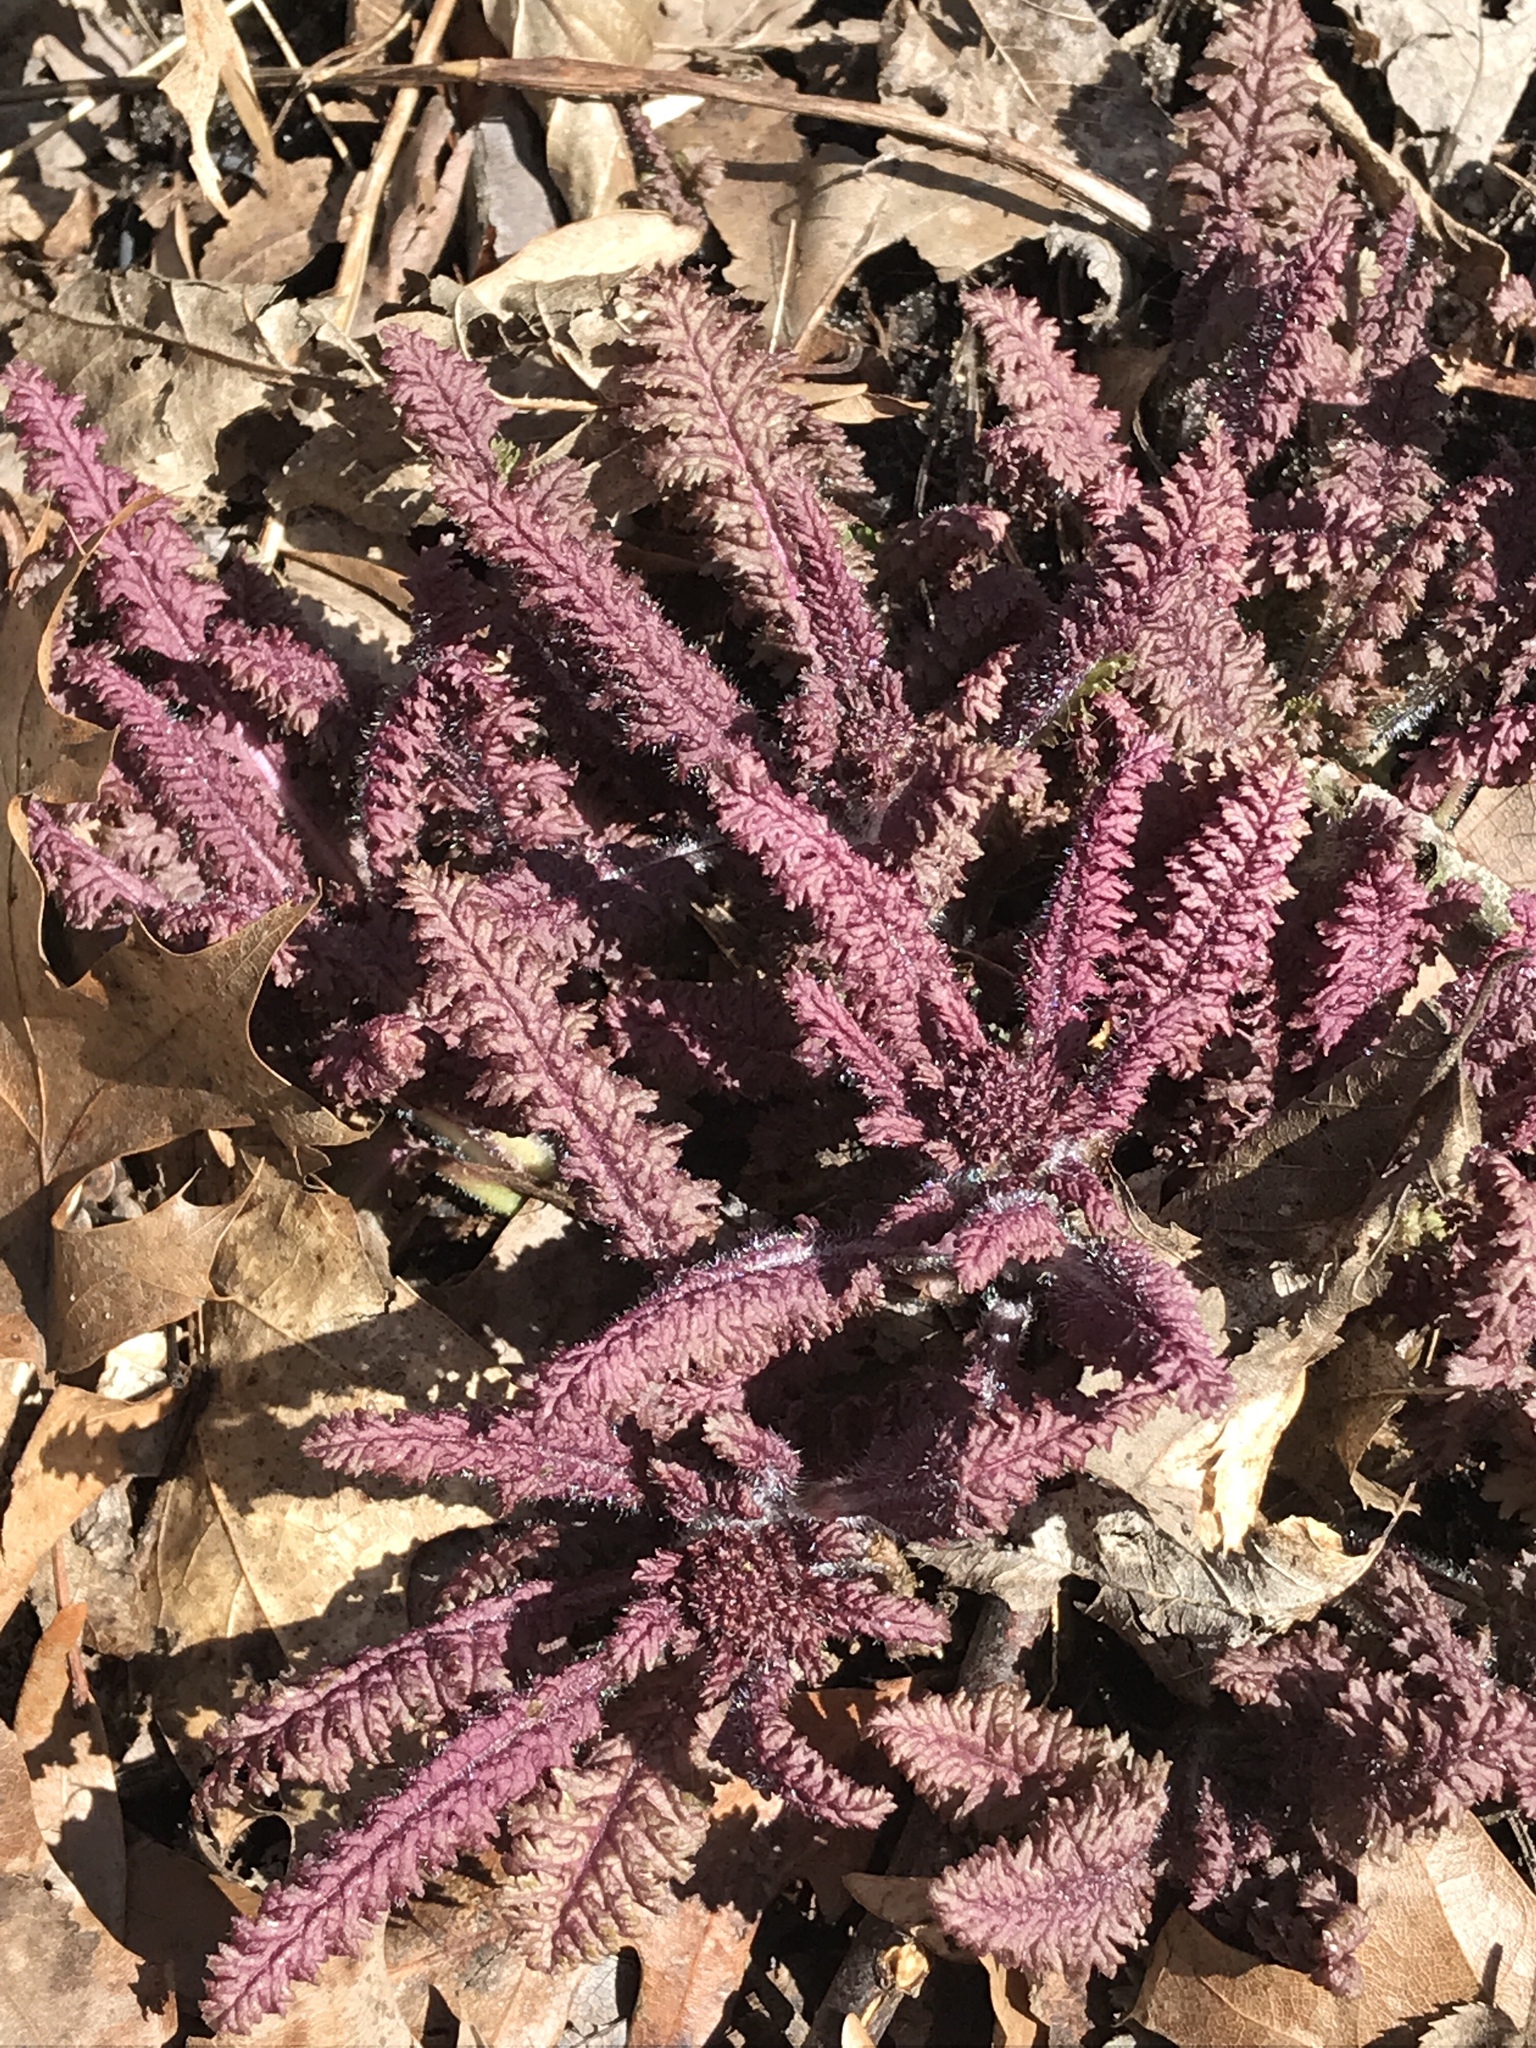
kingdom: Plantae
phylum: Tracheophyta
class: Magnoliopsida
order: Lamiales
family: Orobanchaceae
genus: Pedicularis
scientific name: Pedicularis canadensis
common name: Early lousewort
